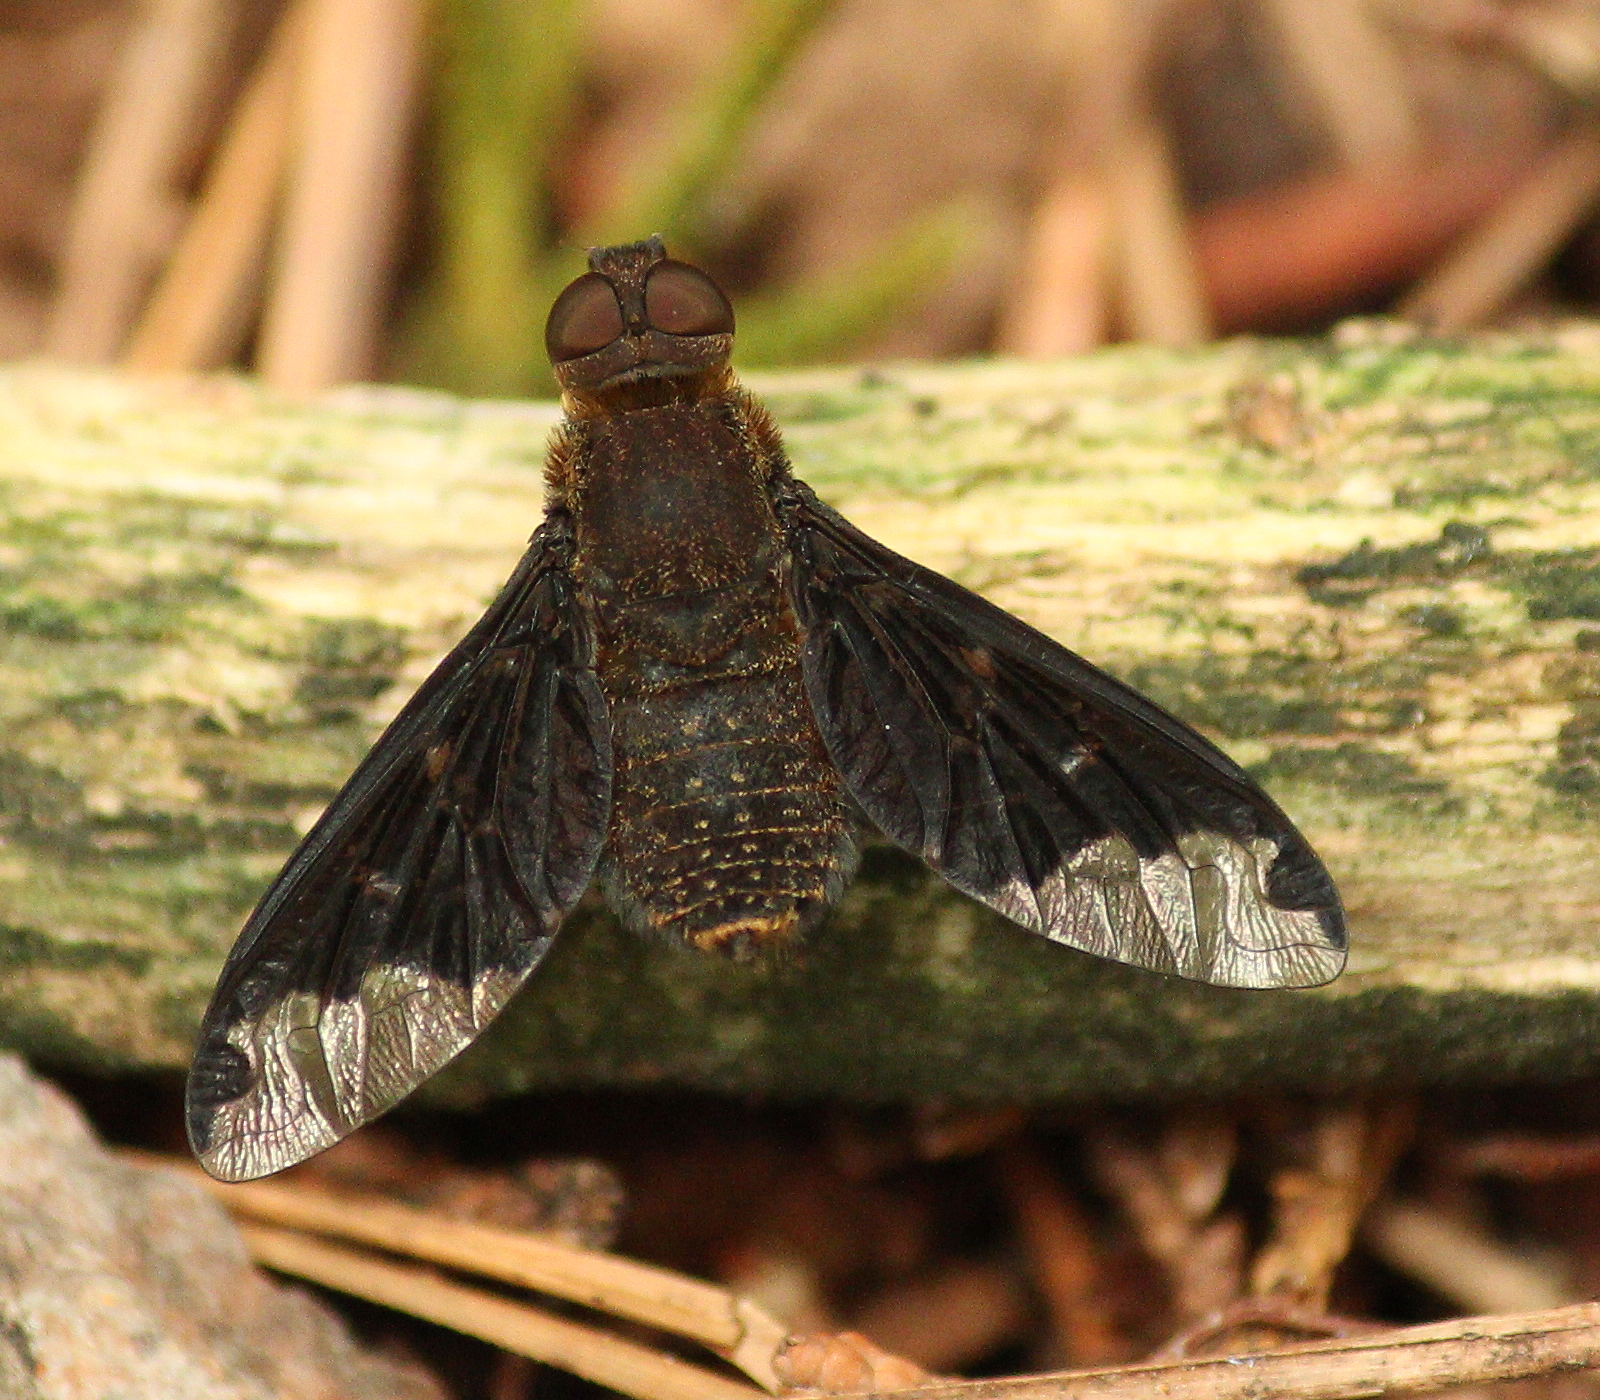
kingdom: Animalia
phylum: Arthropoda
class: Insecta
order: Diptera
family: Bombyliidae
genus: Hemipenthes
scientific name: Hemipenthes sinuosus
